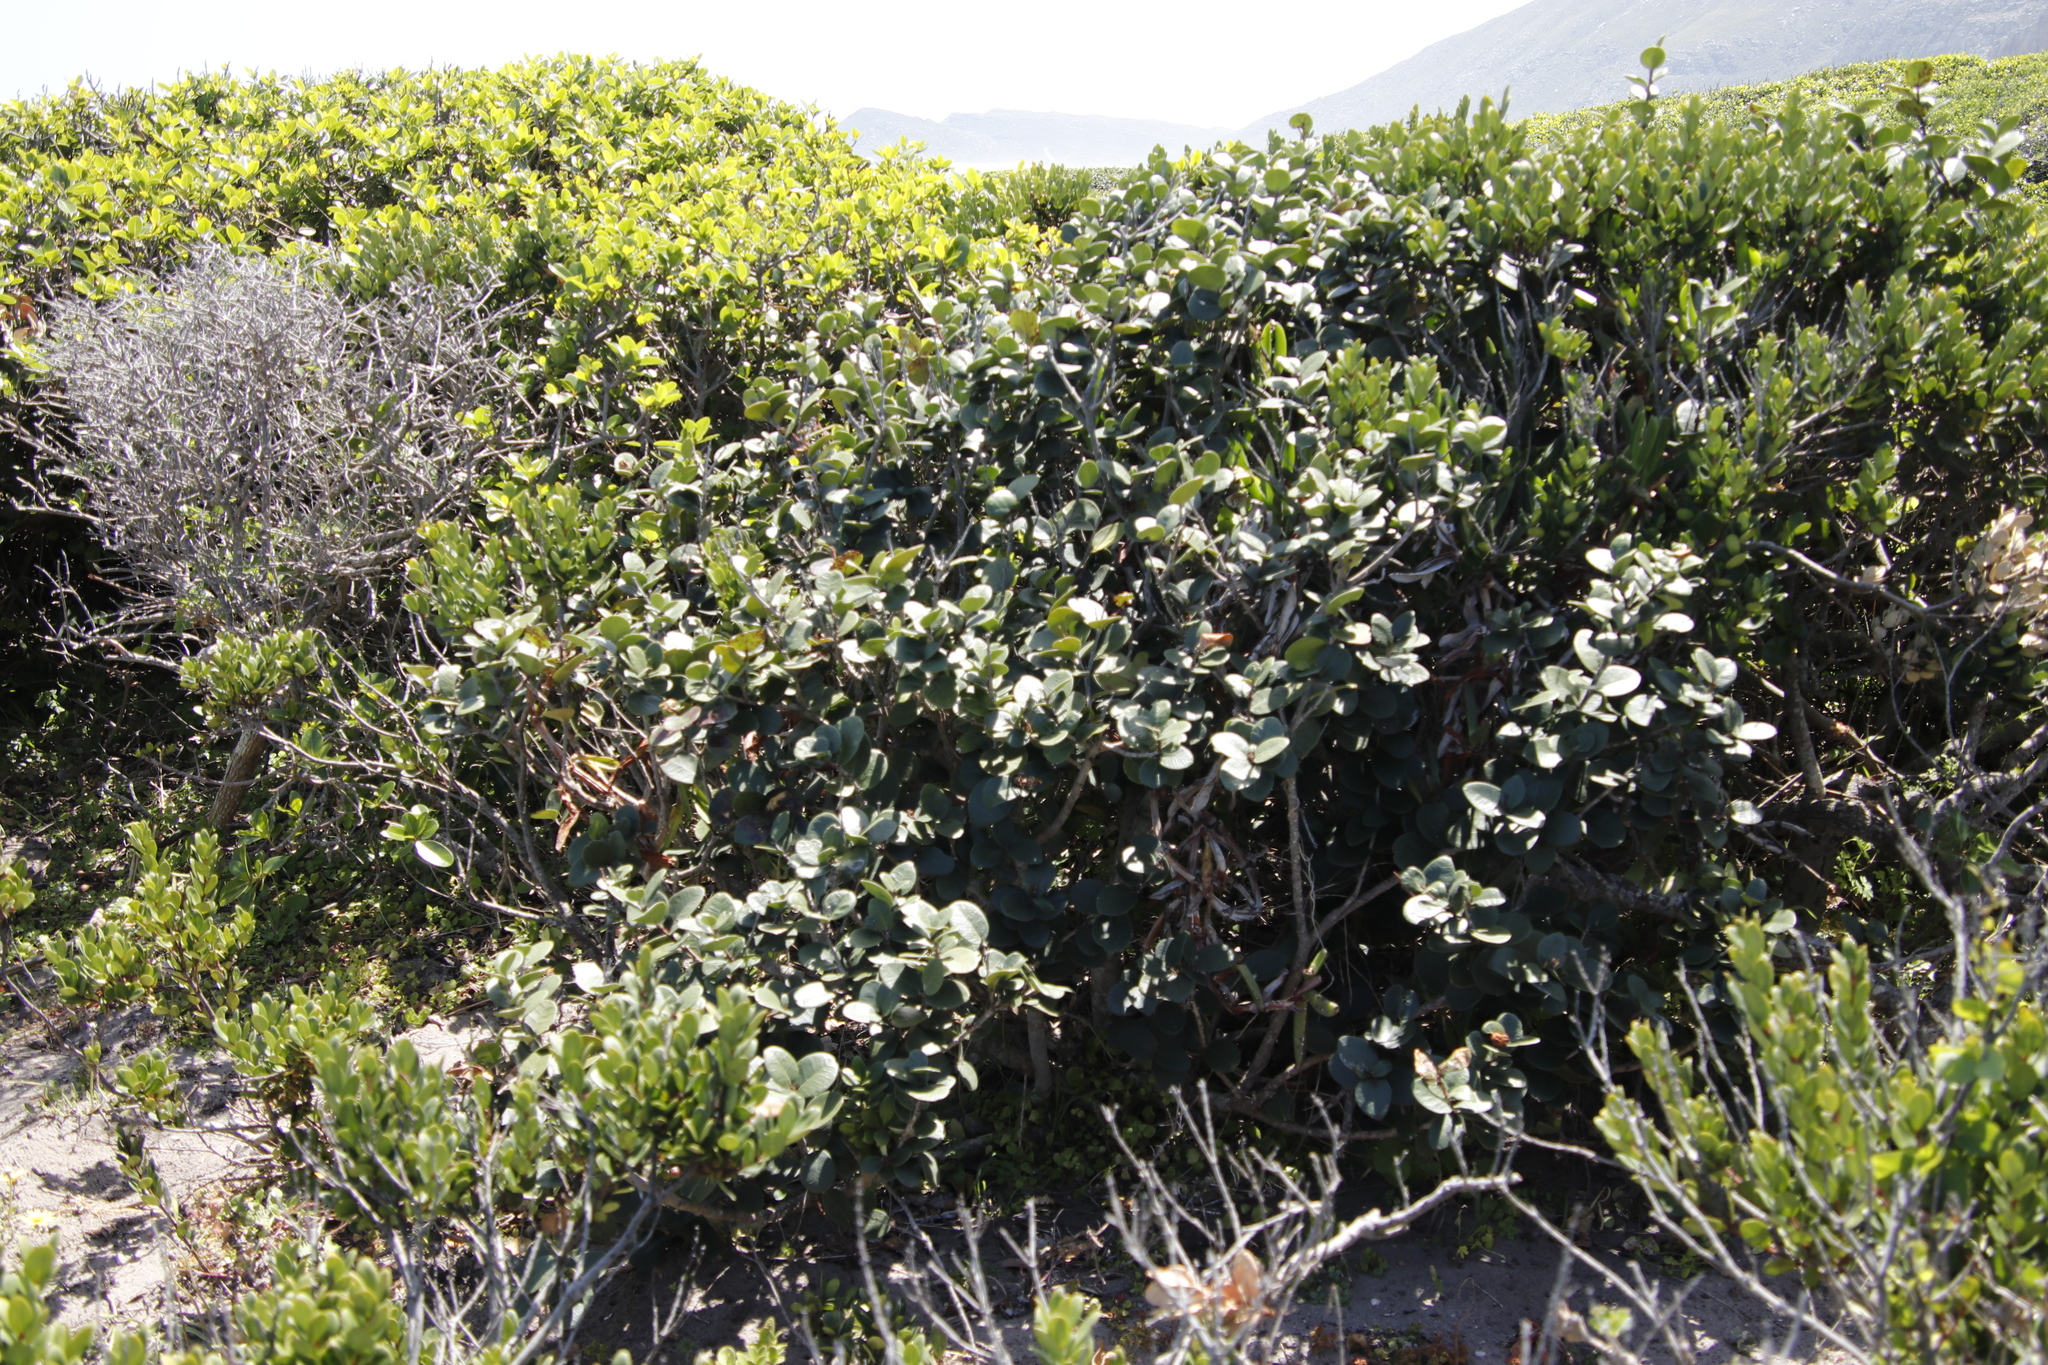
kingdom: Plantae
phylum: Tracheophyta
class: Magnoliopsida
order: Celastrales
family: Celastraceae
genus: Maurocenia
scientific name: Maurocenia frangula
